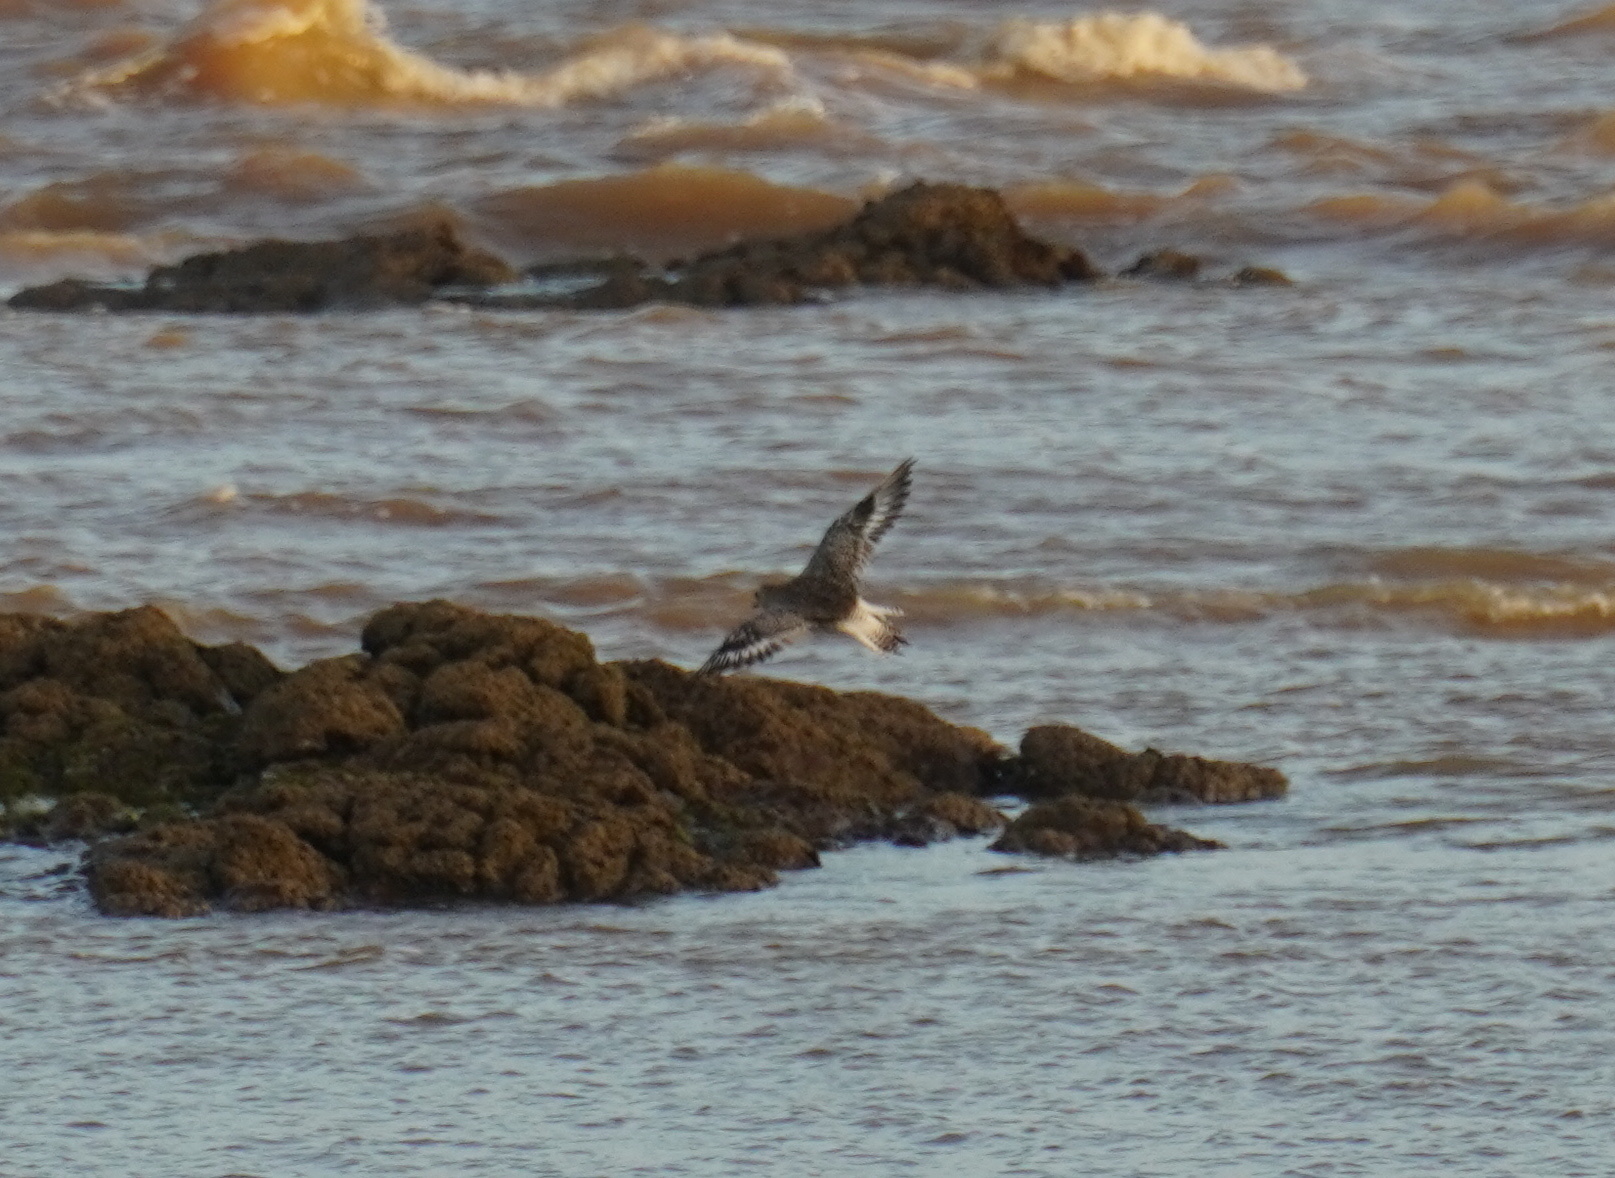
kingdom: Animalia
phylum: Chordata
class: Aves
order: Charadriiformes
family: Charadriidae
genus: Pluvialis
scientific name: Pluvialis squatarola
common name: Grey plover
